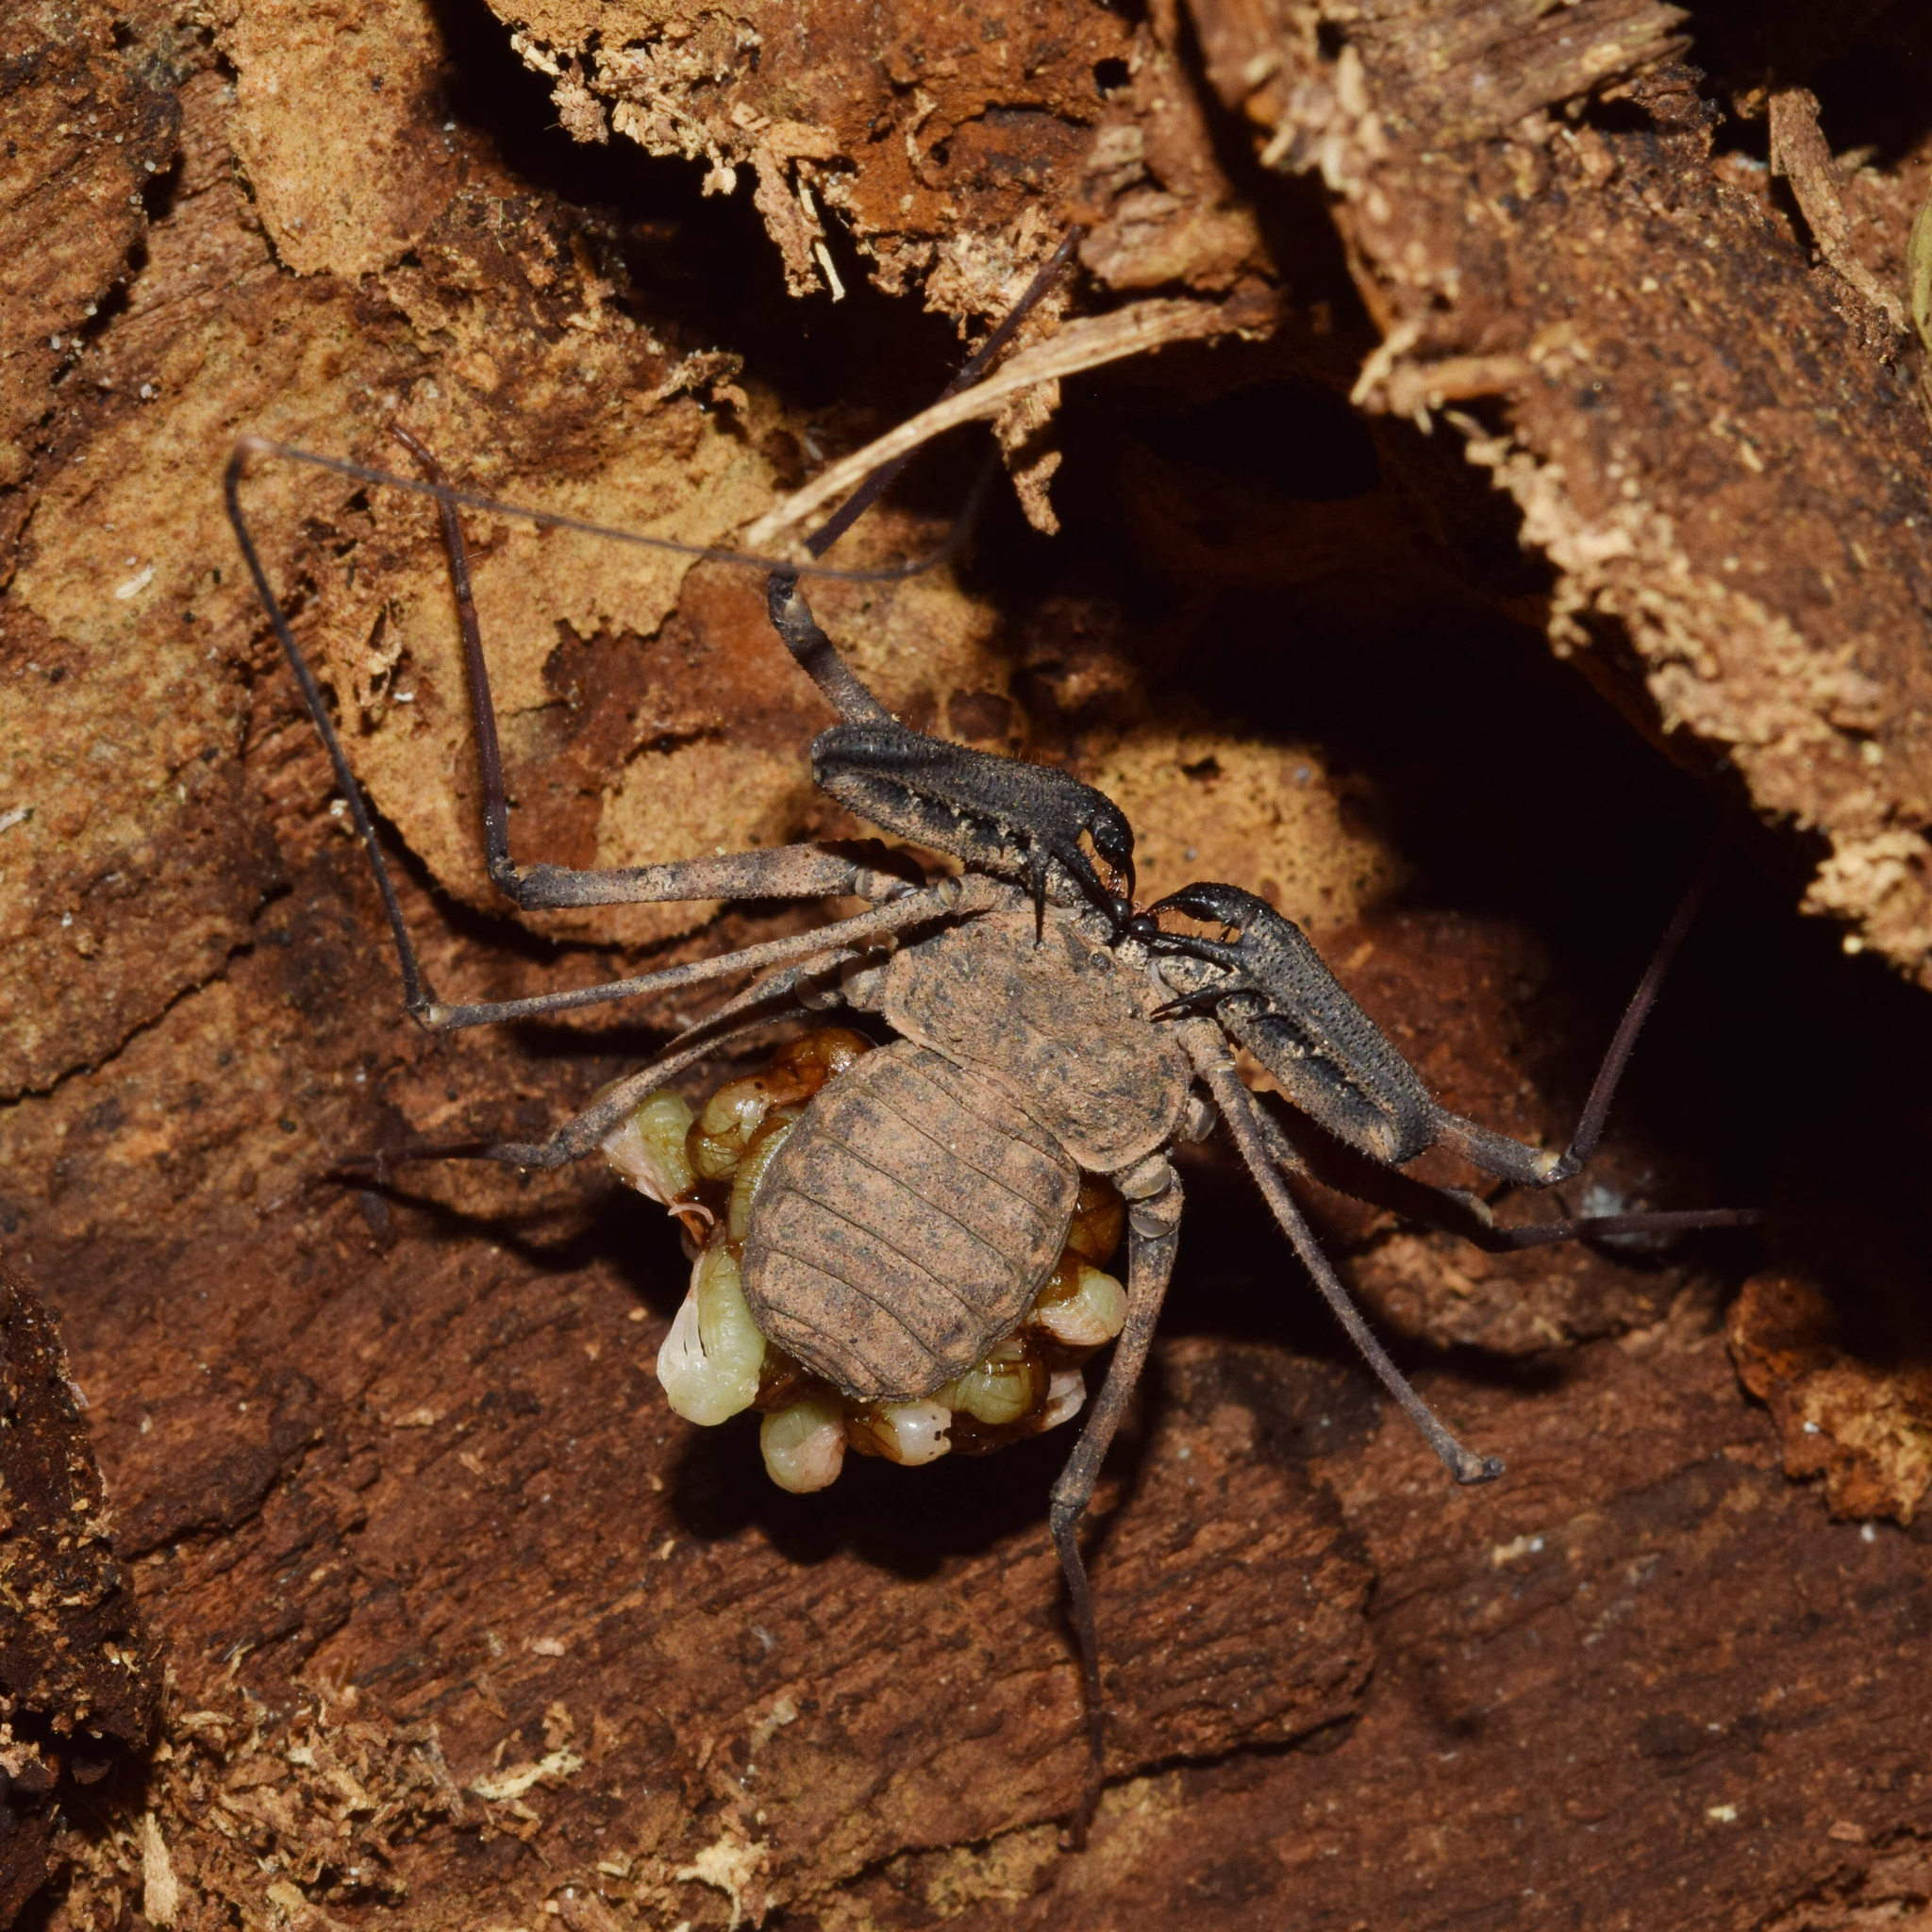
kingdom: Animalia
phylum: Arthropoda
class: Arachnida
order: Amblypygi
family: Phrynichidae
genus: Damon
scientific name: Damon annulatipes
